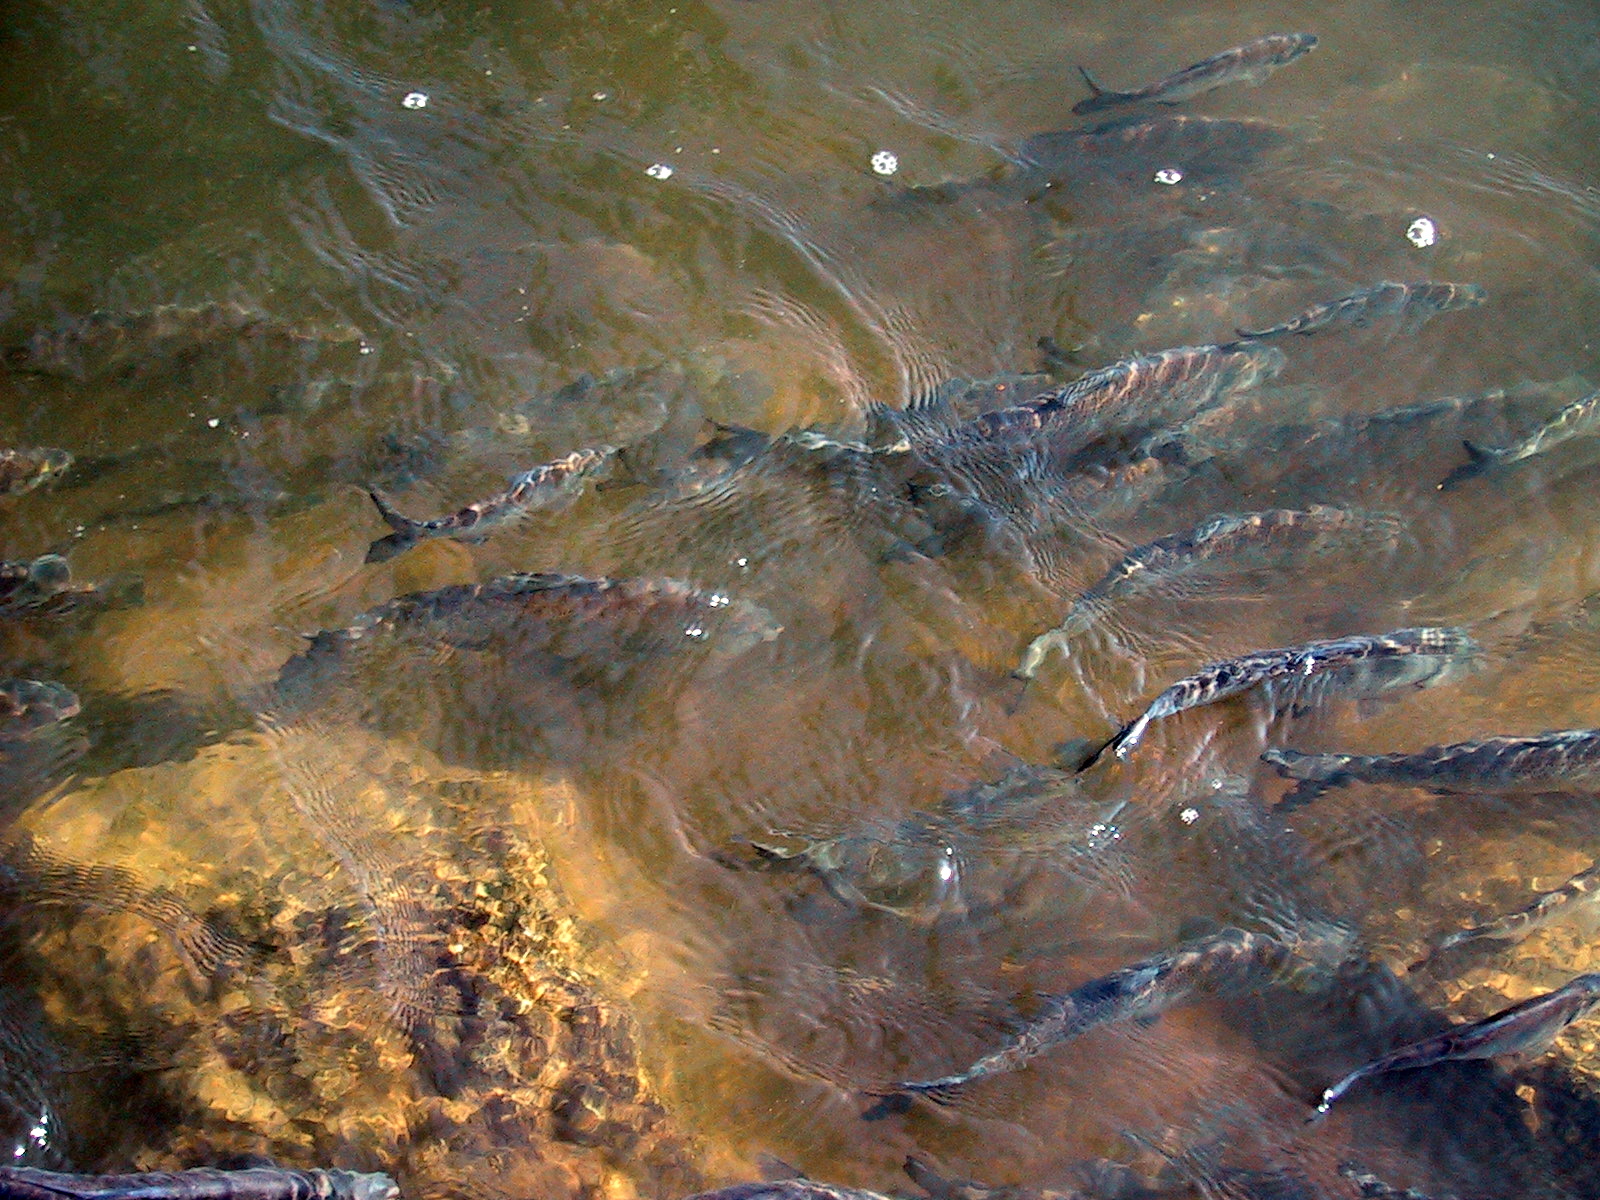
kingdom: Animalia
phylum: Chordata
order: Clupeiformes
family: Clupeidae
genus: Dorosoma
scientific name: Dorosoma cepedianum
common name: Gizzard shad
